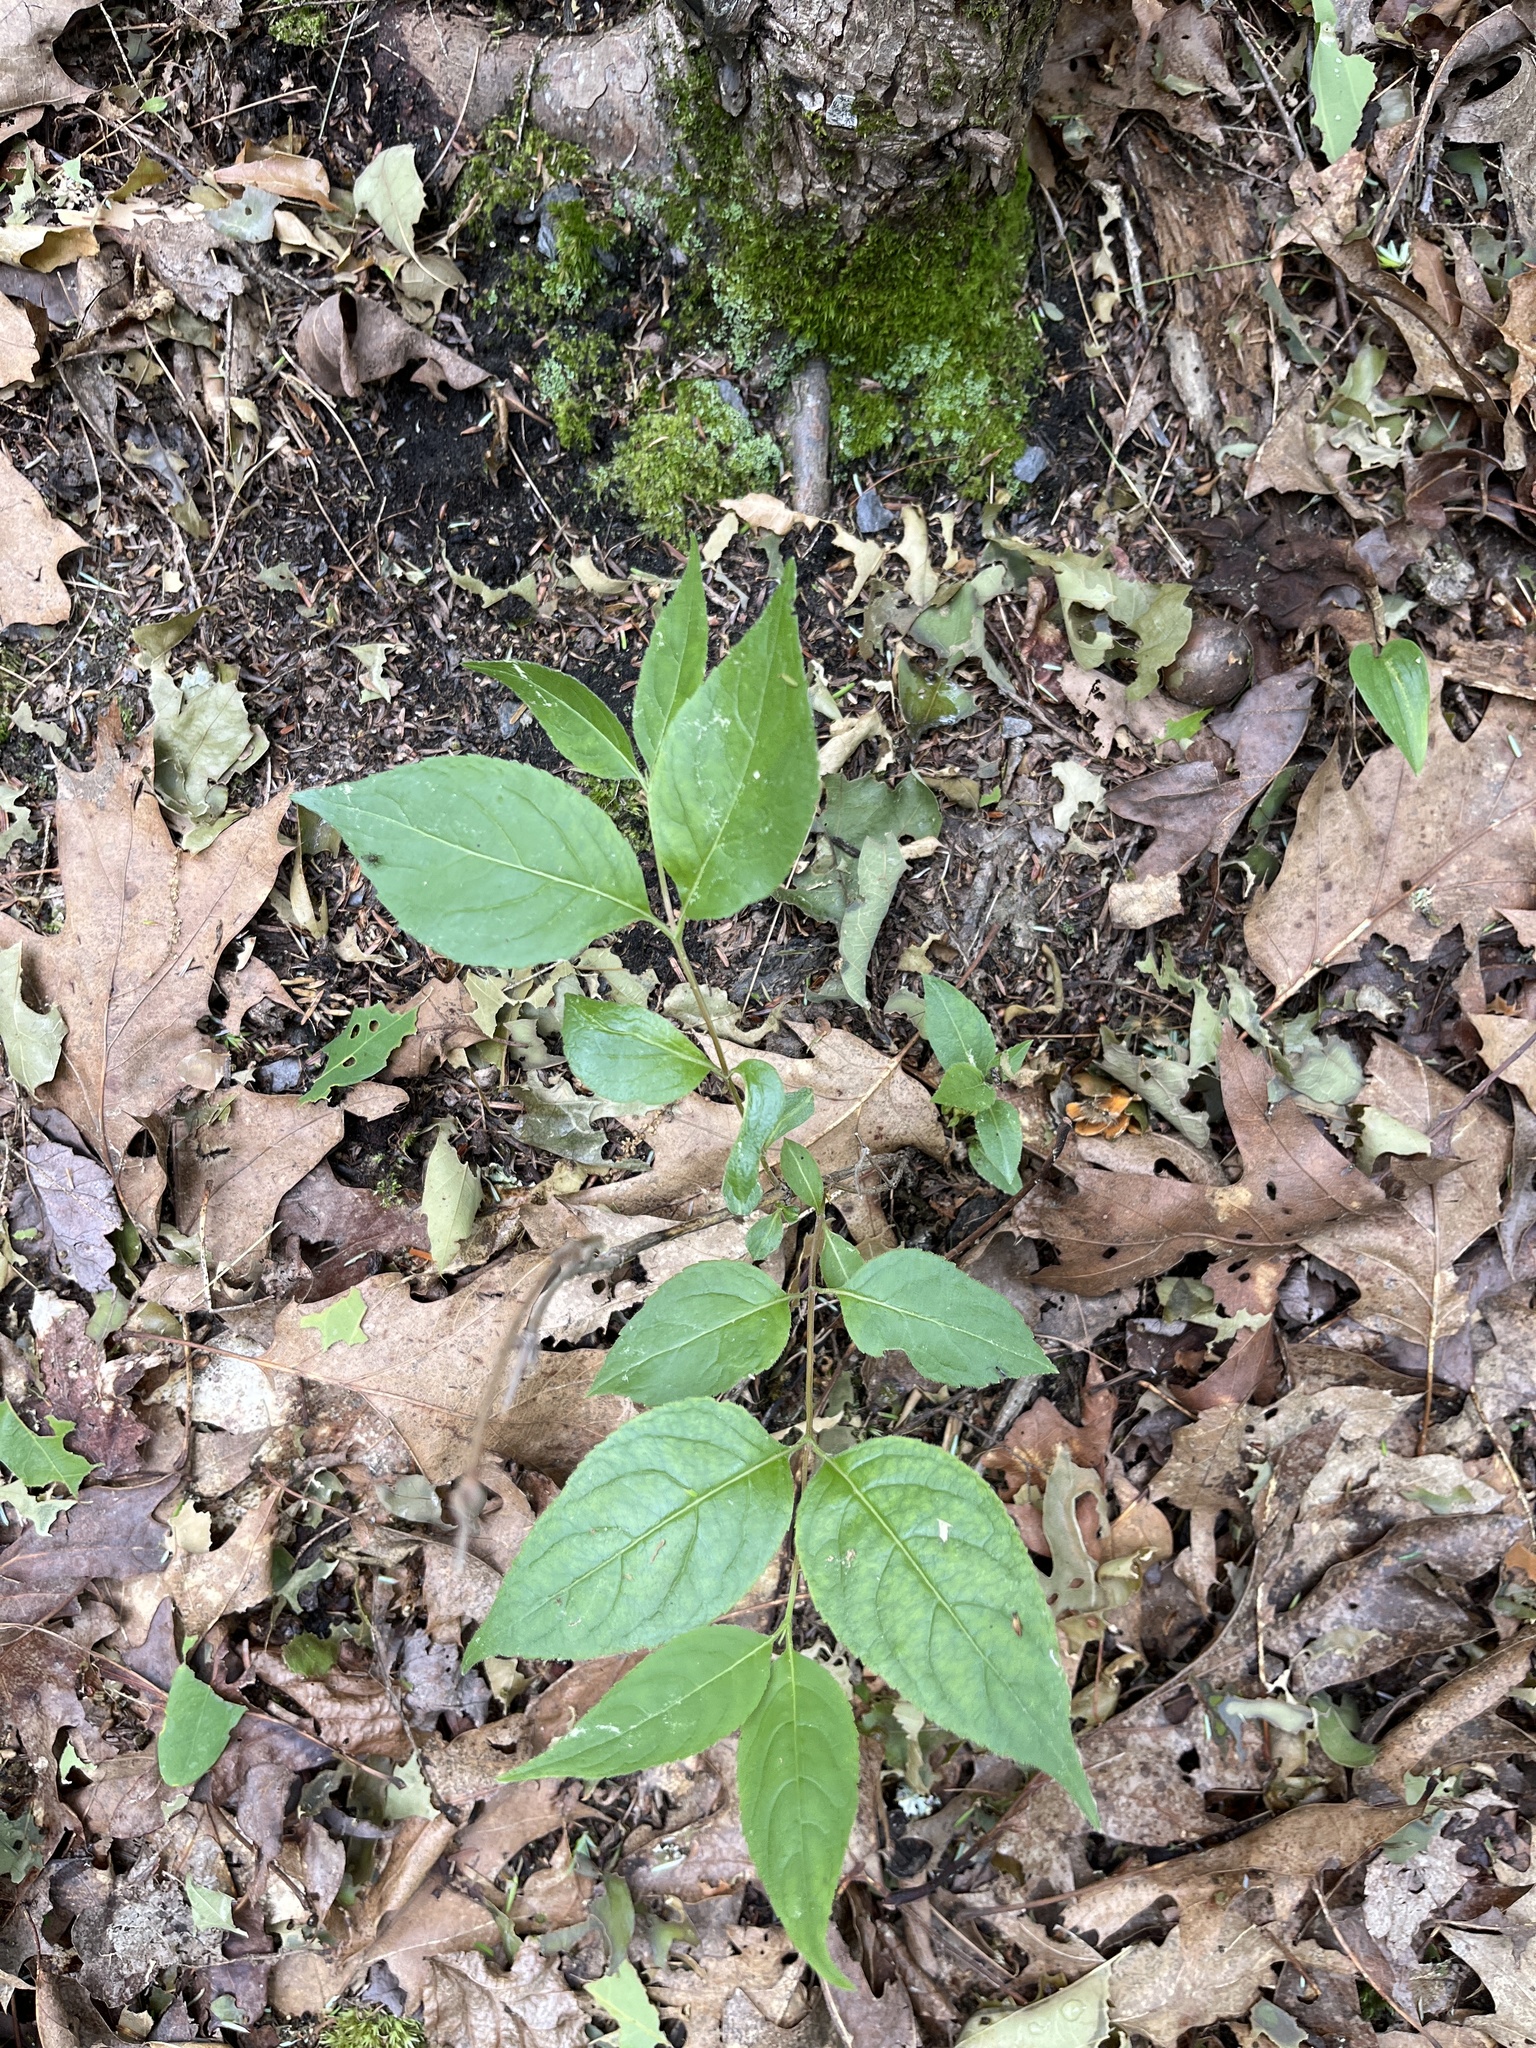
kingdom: Plantae
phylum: Tracheophyta
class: Magnoliopsida
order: Dipsacales
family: Caprifoliaceae
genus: Diervilla
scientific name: Diervilla lonicera
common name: Bush-honeysuckle
